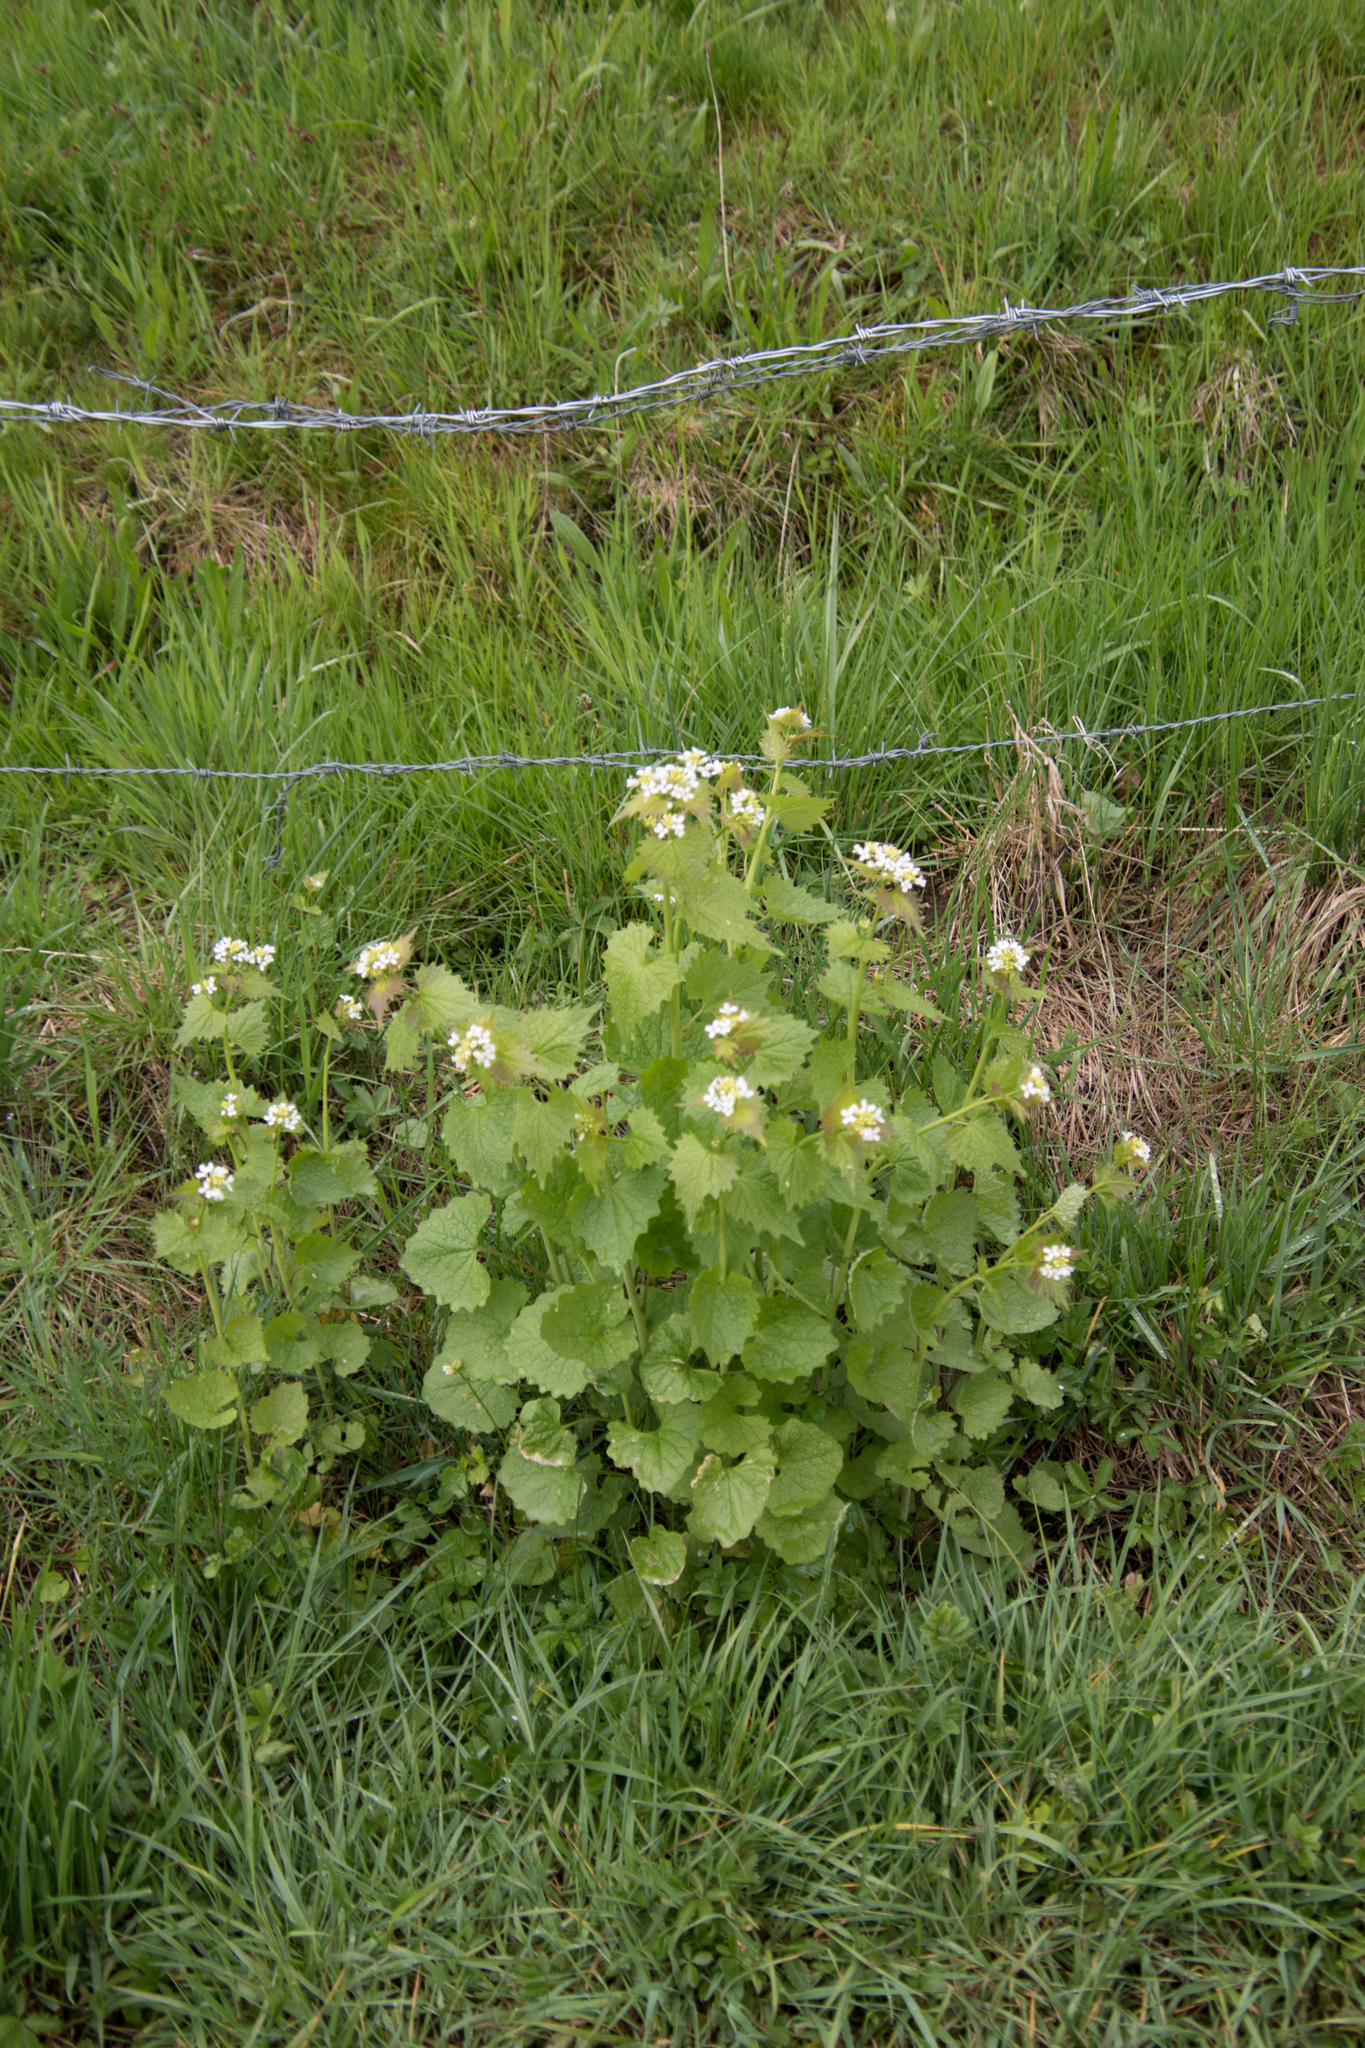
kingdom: Plantae
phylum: Tracheophyta
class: Magnoliopsida
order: Brassicales
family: Brassicaceae
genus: Alliaria
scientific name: Alliaria petiolata
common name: Garlic mustard
